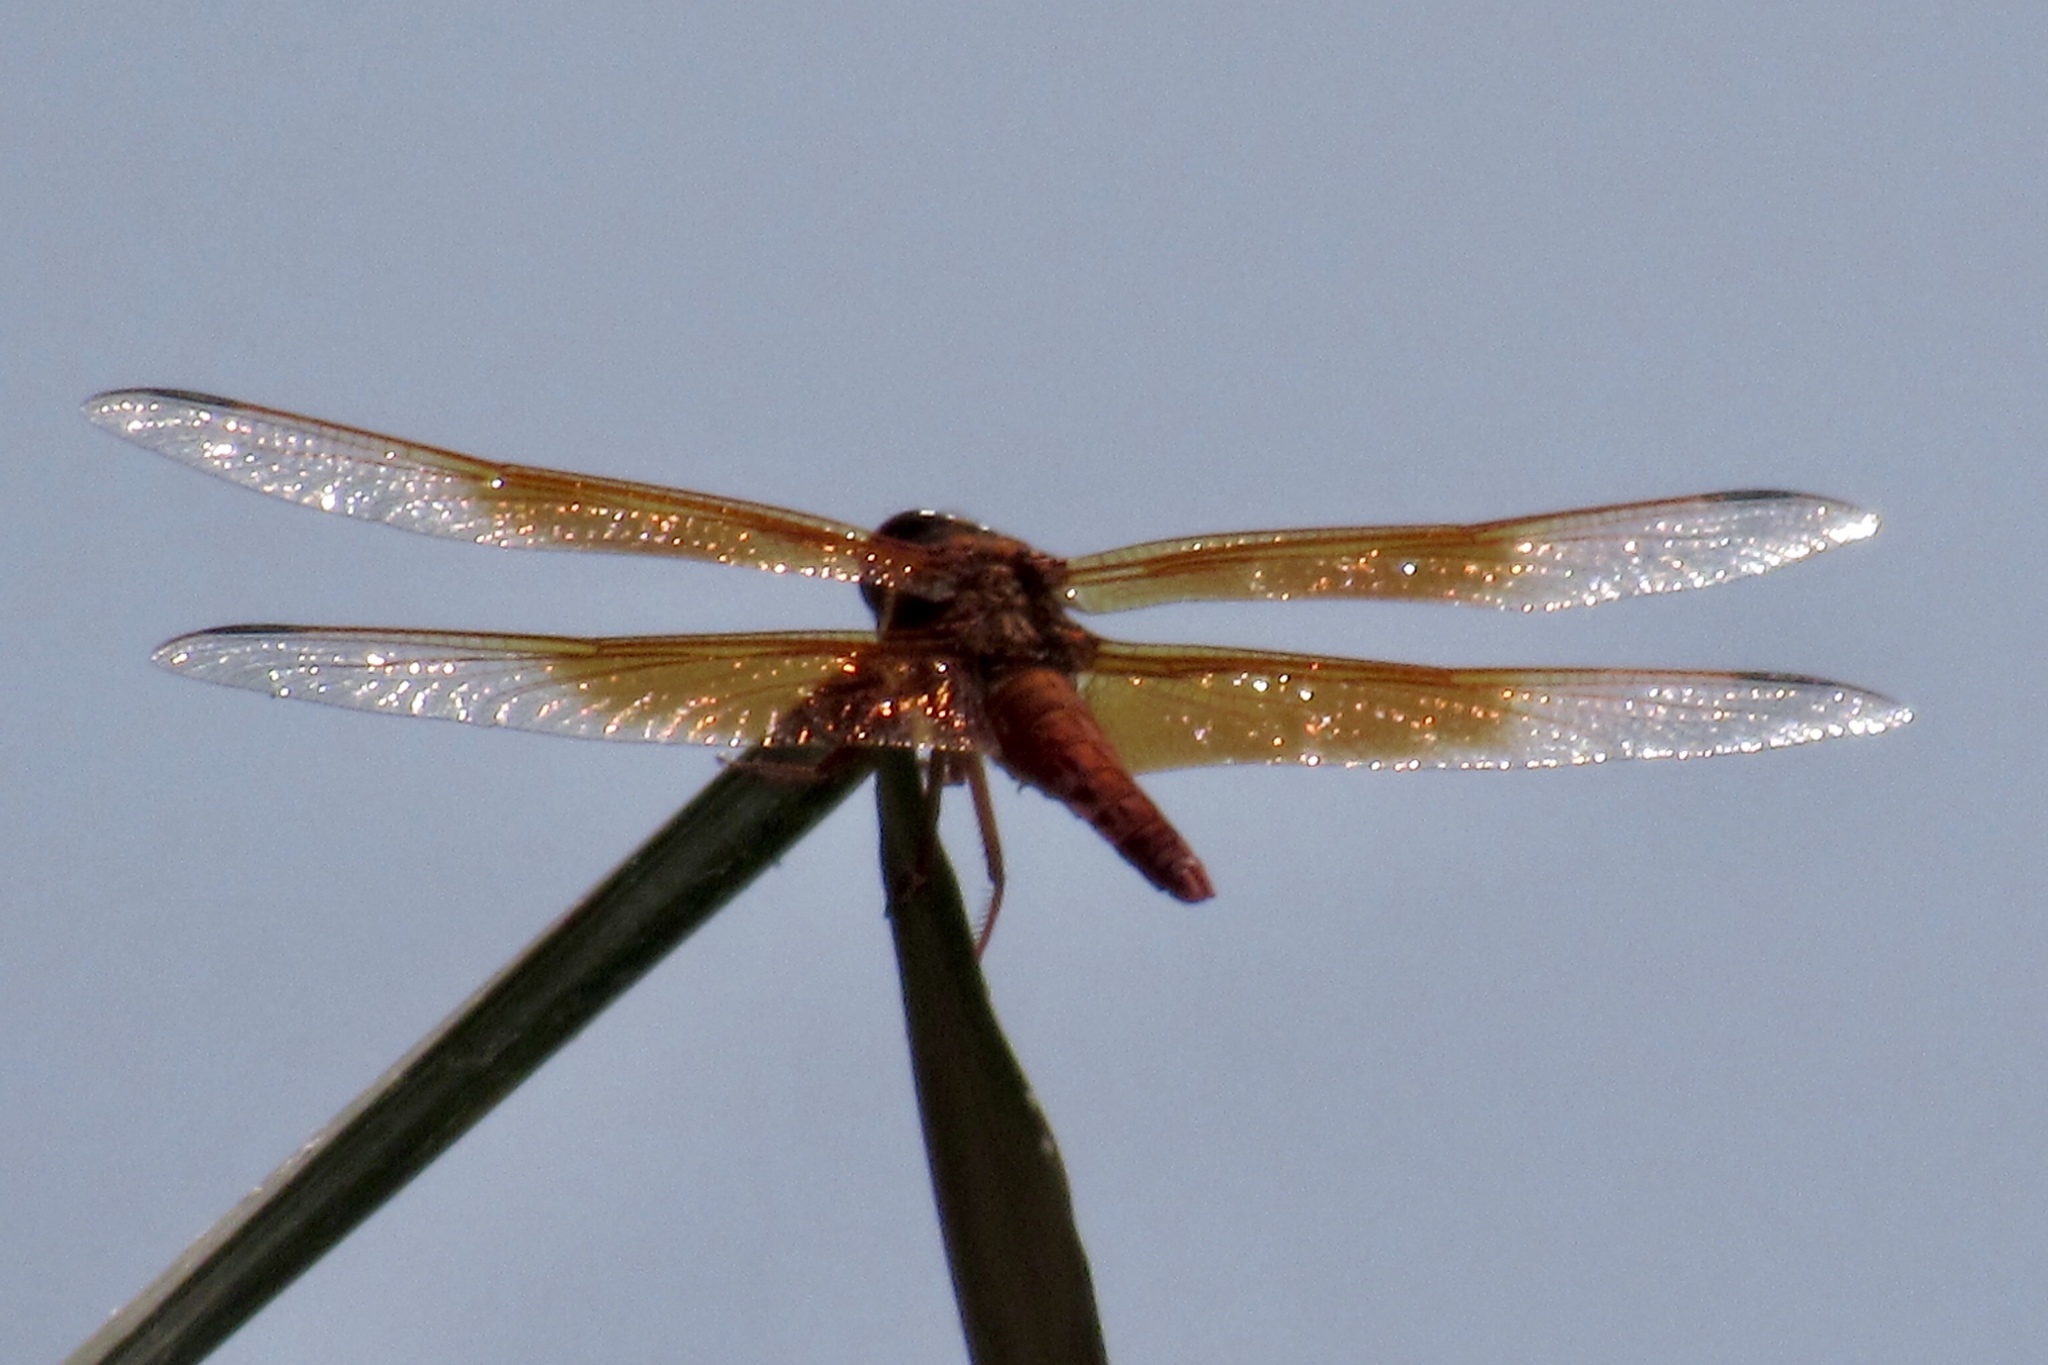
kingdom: Animalia
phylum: Arthropoda
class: Insecta
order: Odonata
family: Libellulidae
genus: Libellula
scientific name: Libellula saturata
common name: Flame skimmer
